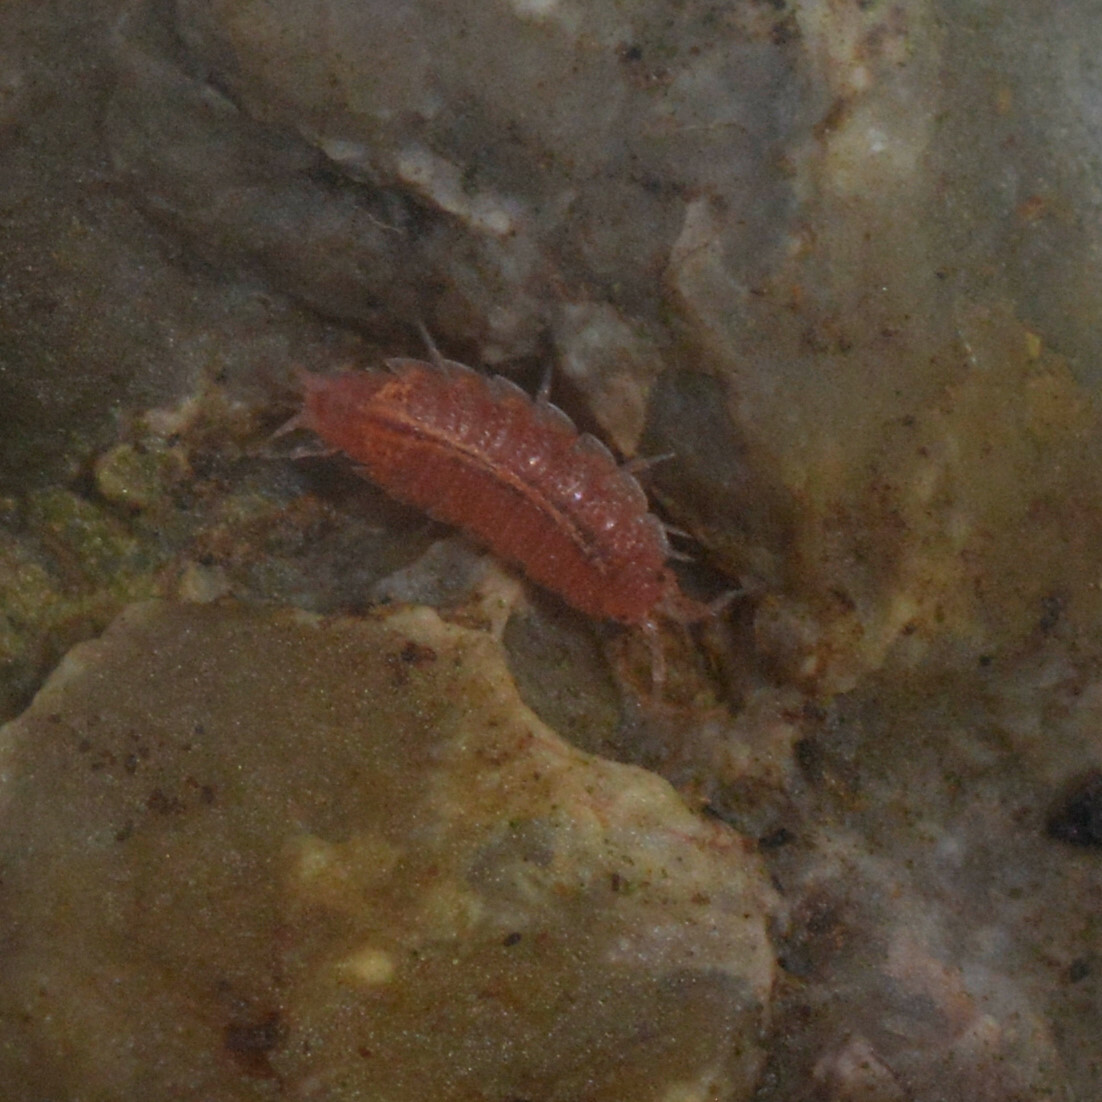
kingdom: Animalia
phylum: Arthropoda
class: Malacostraca
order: Isopoda
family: Trichoniscidae
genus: Androniscus
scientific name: Androniscus dentiger
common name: Rosy woodlouse
